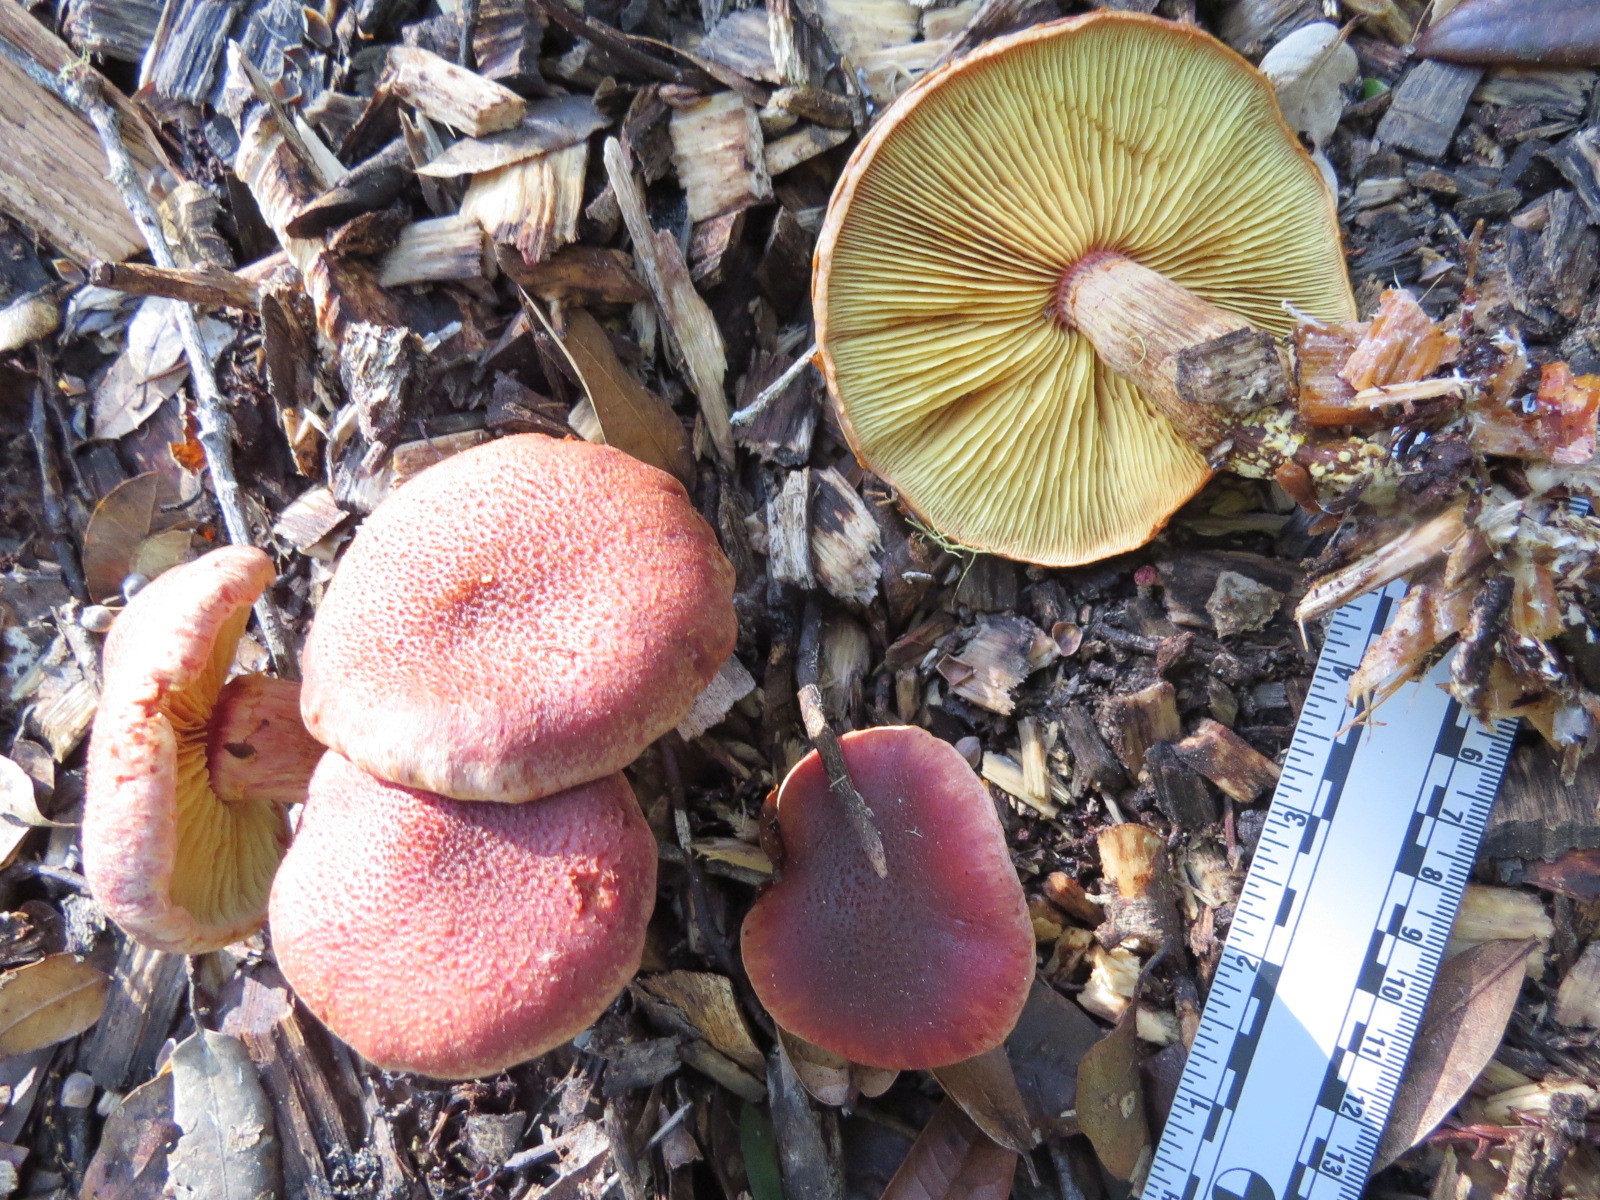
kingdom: Fungi
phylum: Basidiomycota
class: Agaricomycetes
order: Agaricales
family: Hymenogastraceae
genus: Gymnopilus
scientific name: Gymnopilus luteofolius
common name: Yellow-gilled gymnopilus
